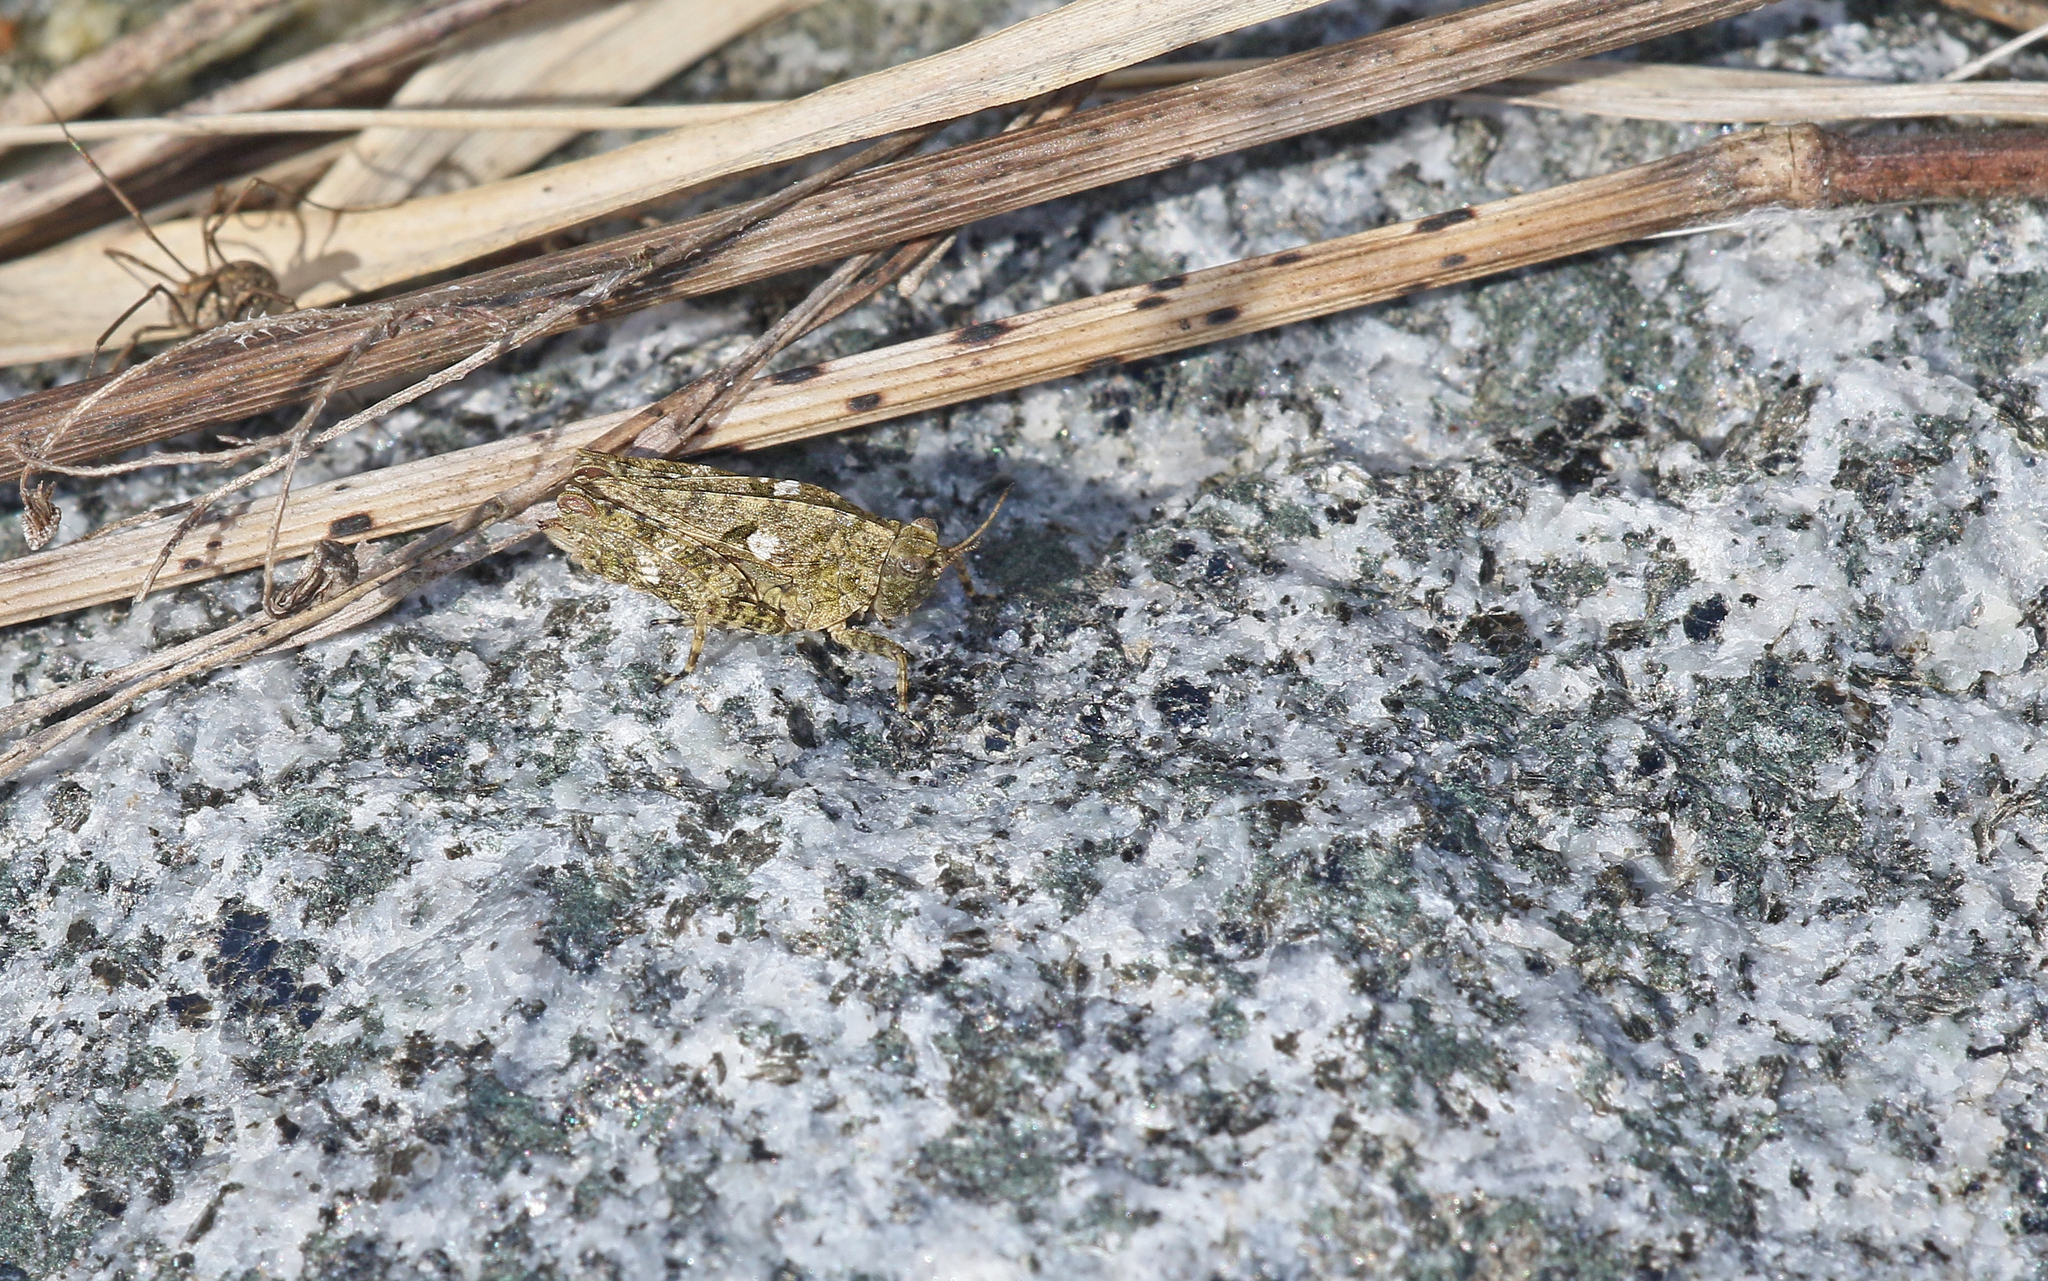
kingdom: Animalia
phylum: Arthropoda
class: Insecta
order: Orthoptera
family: Tetrigidae
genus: Tetrix
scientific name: Tetrix tenuicornis
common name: Long-horned groundhopper
